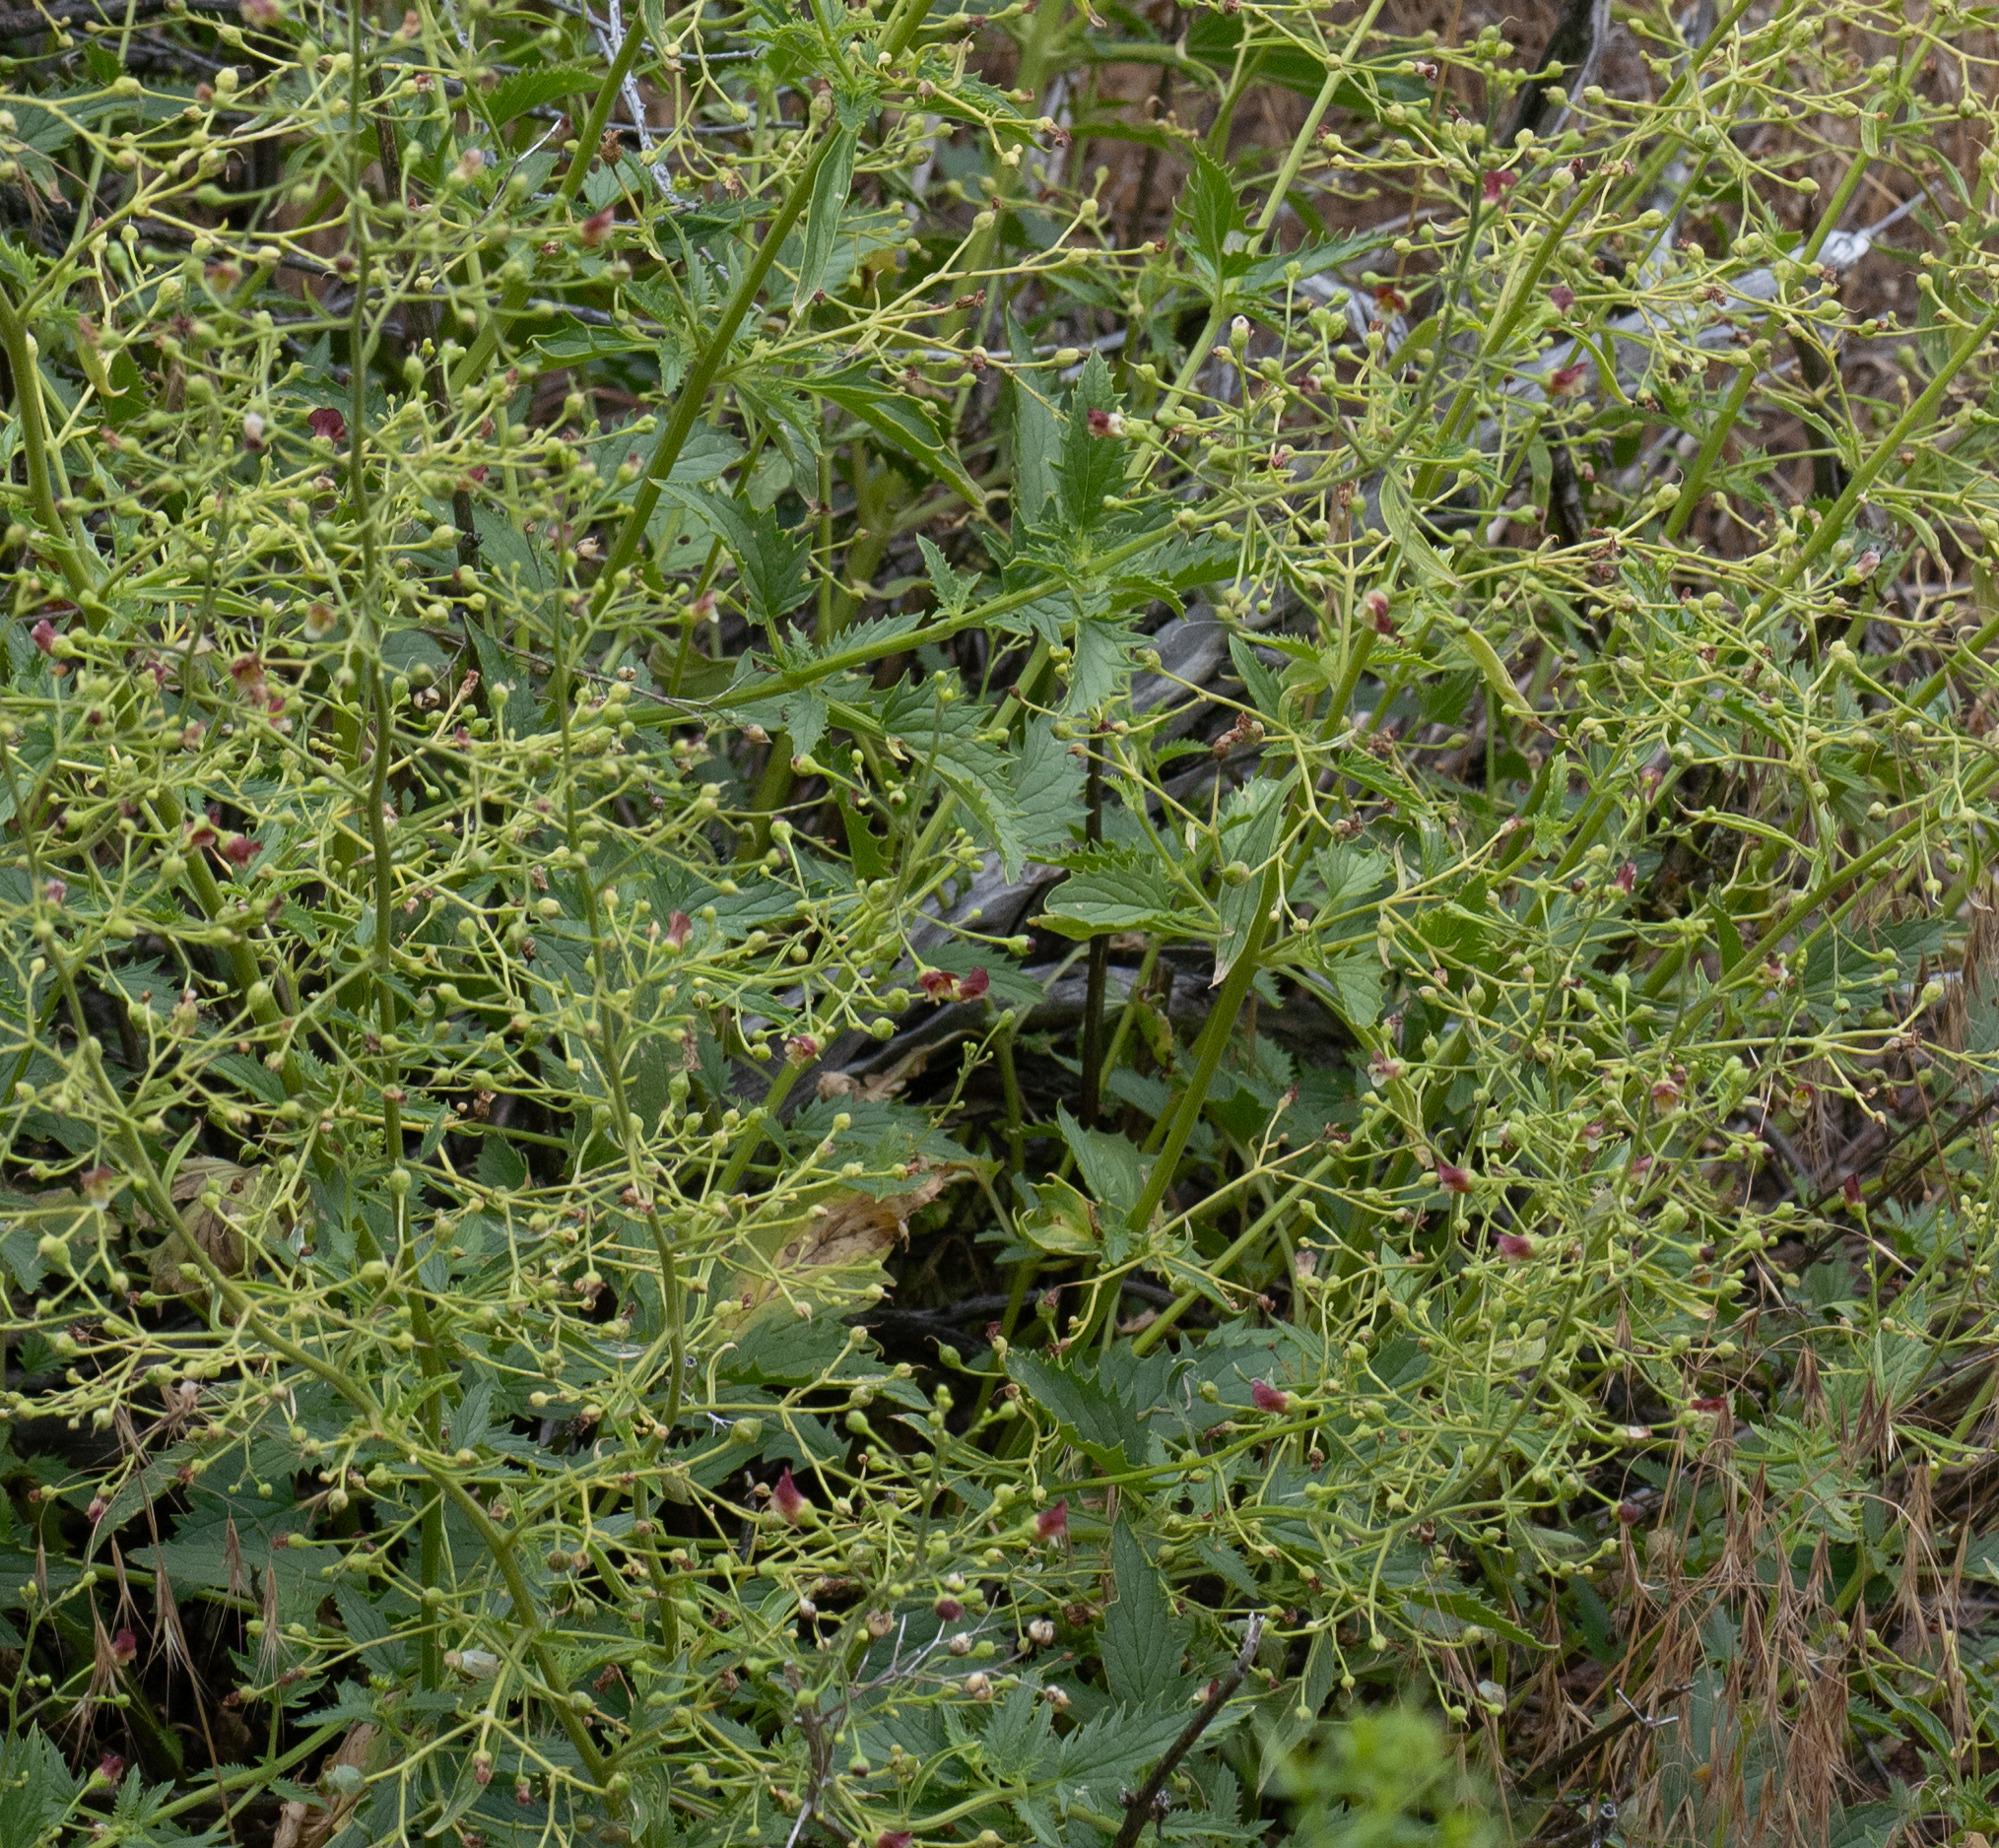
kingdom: Plantae
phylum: Tracheophyta
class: Magnoliopsida
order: Lamiales
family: Scrophulariaceae
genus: Scrophularia
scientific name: Scrophularia desertorum
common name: Desert figwort
